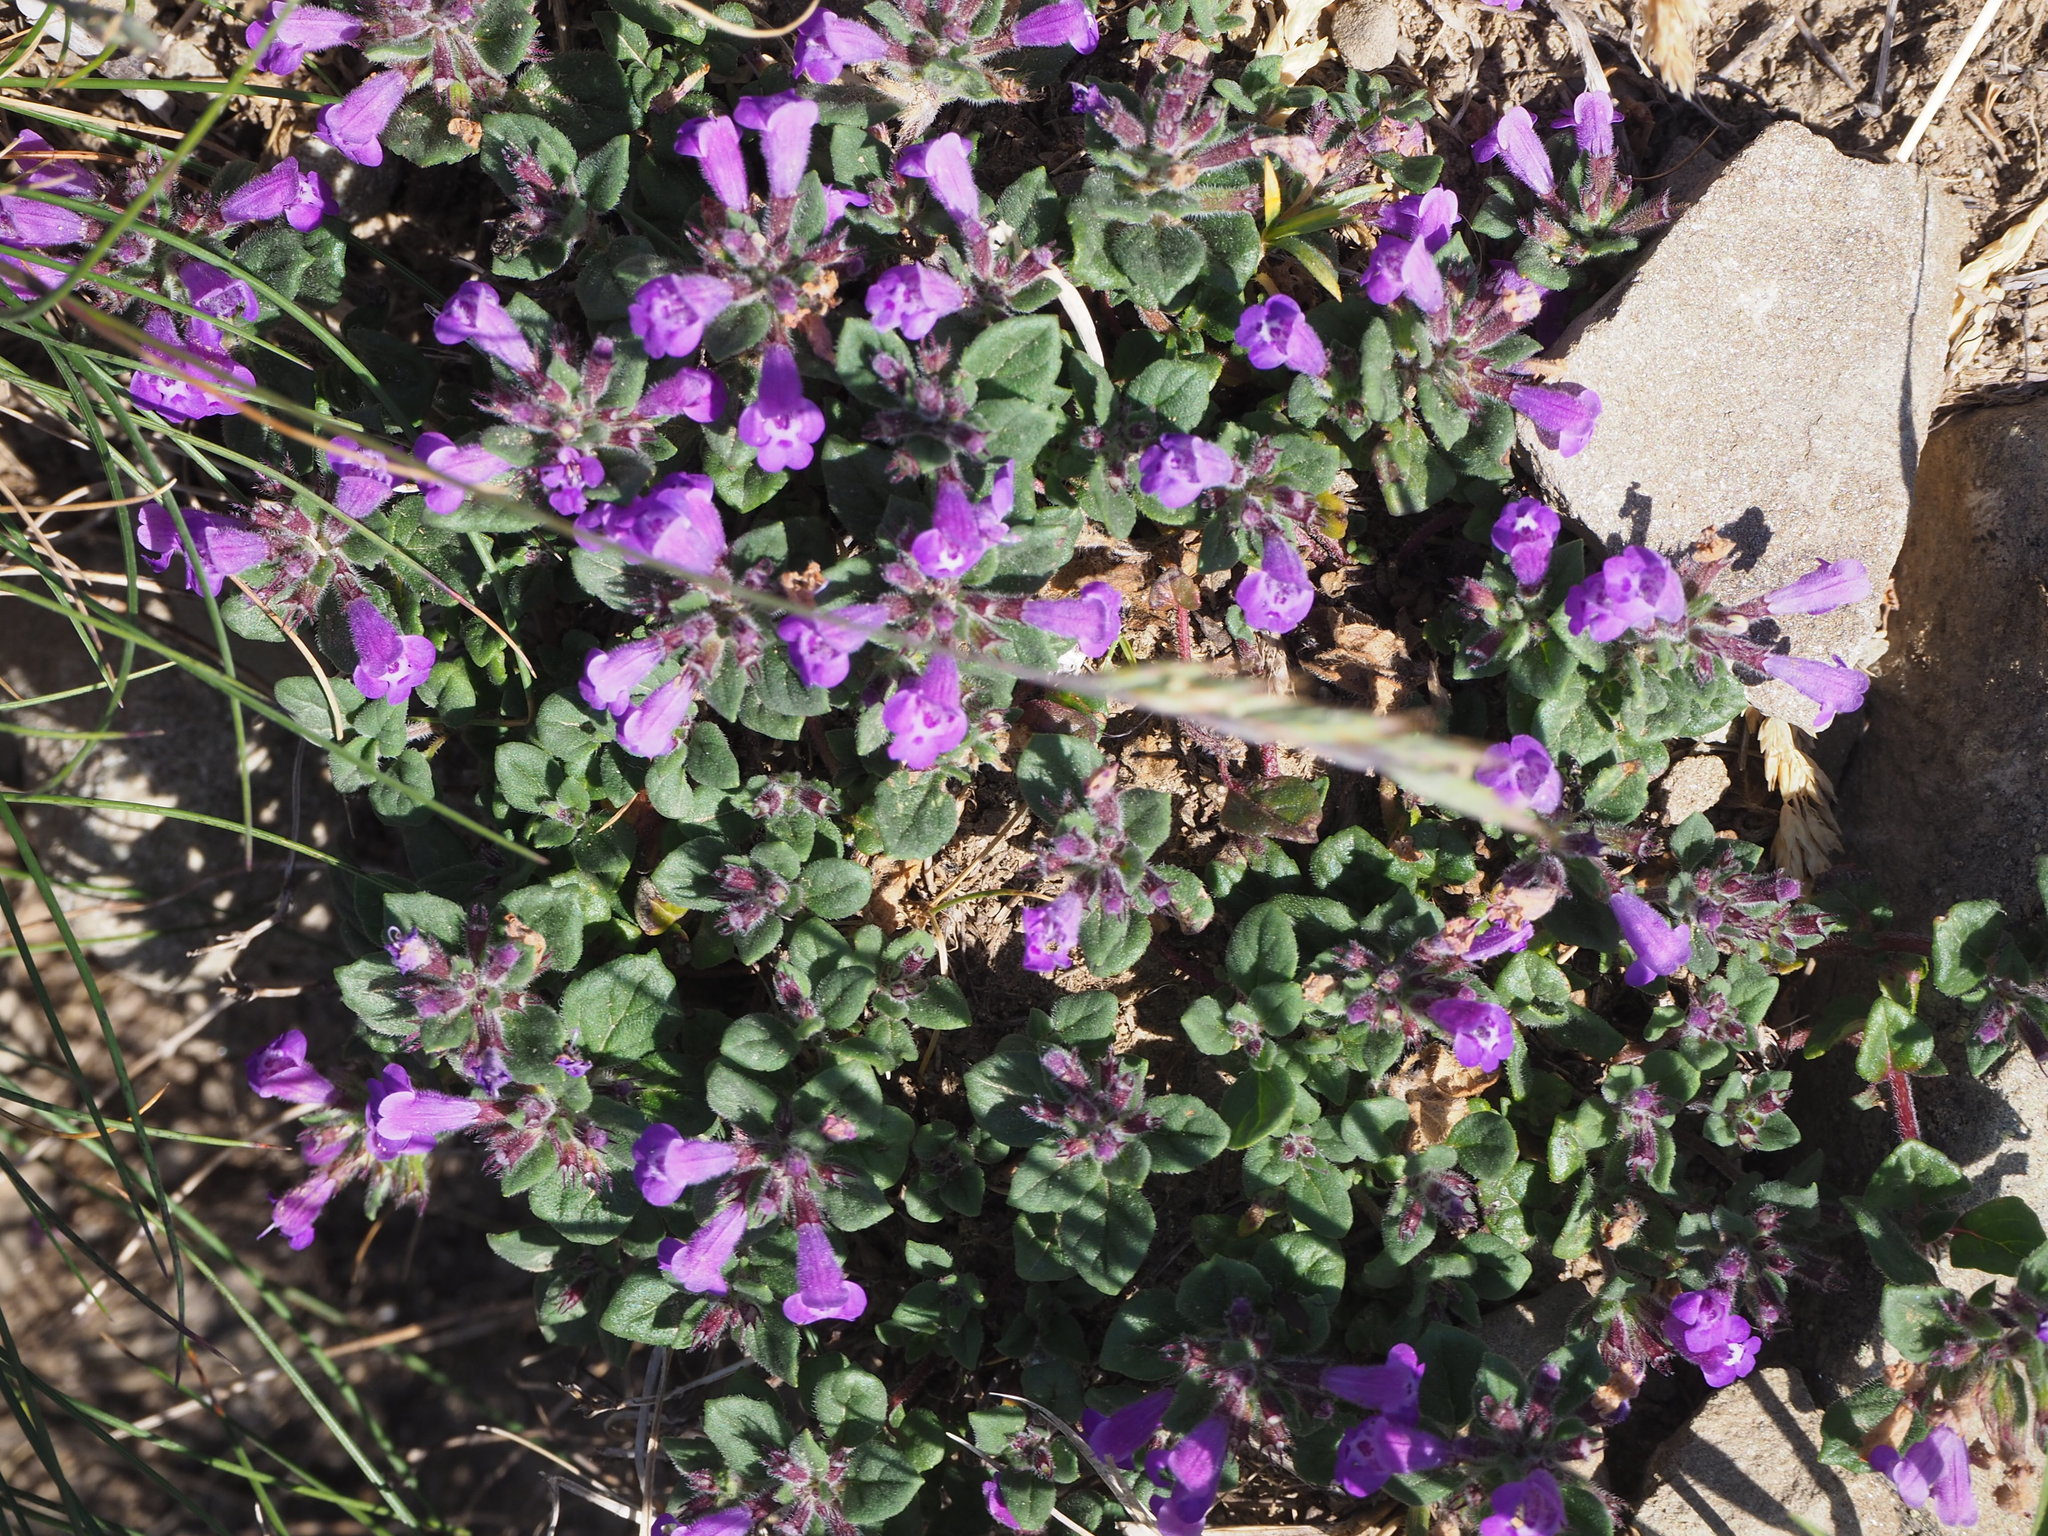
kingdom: Plantae
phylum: Tracheophyta
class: Magnoliopsida
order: Lamiales
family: Lamiaceae
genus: Clinopodium
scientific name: Clinopodium alpinum
